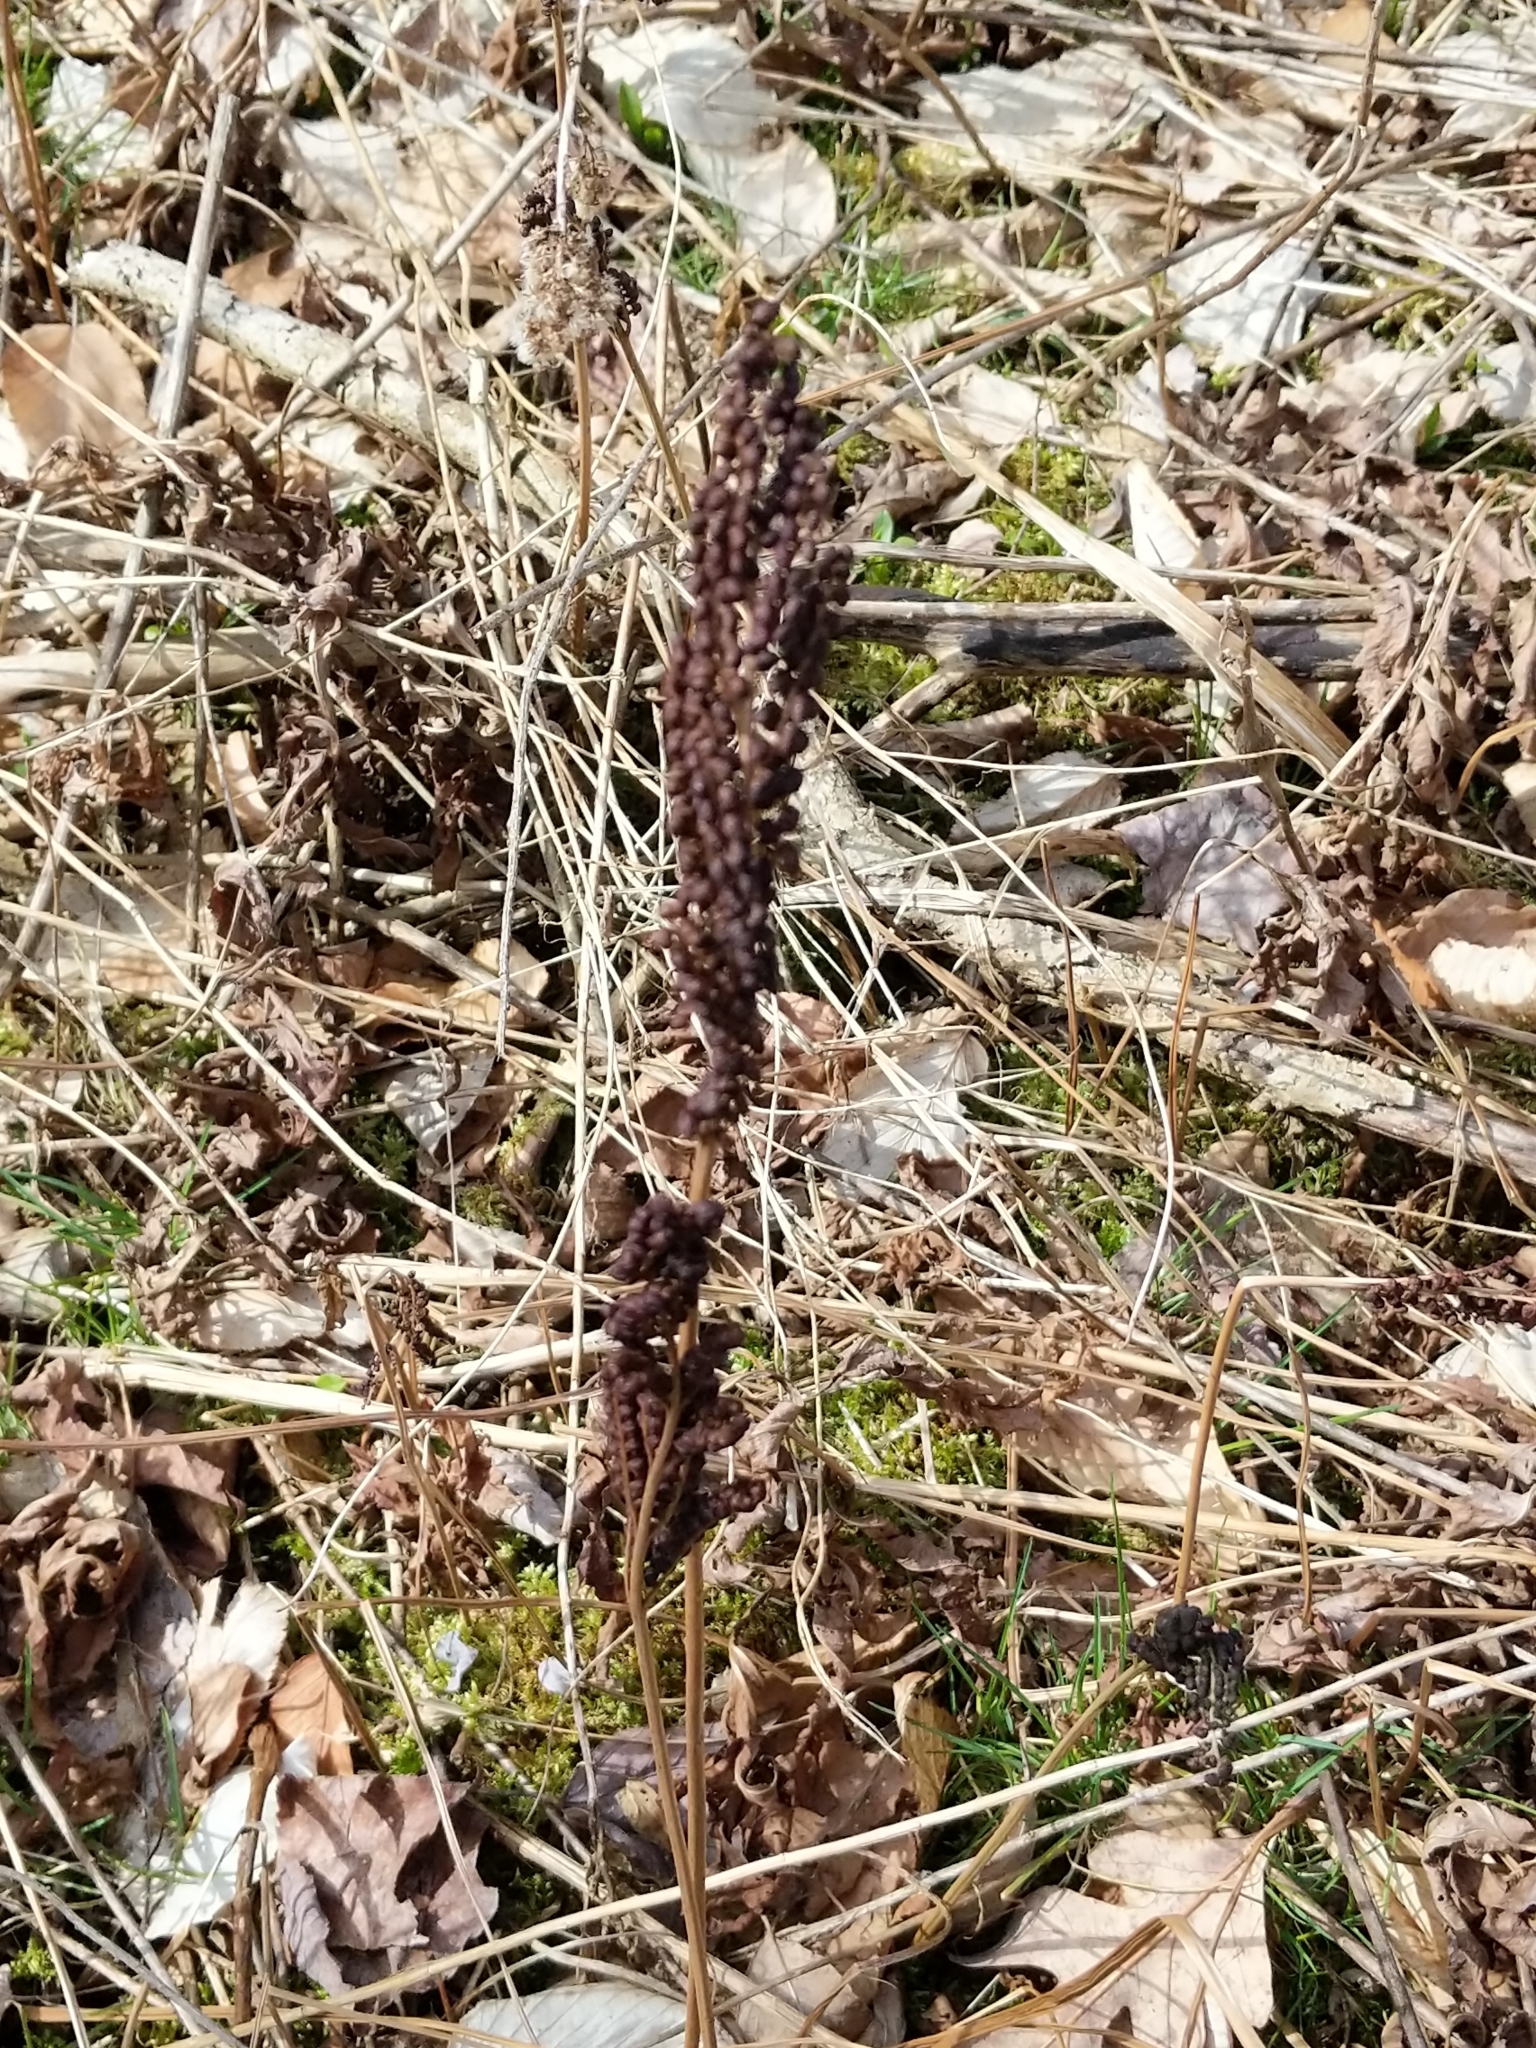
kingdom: Plantae
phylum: Tracheophyta
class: Polypodiopsida
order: Polypodiales
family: Onocleaceae
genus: Onoclea
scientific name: Onoclea sensibilis
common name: Sensitive fern
